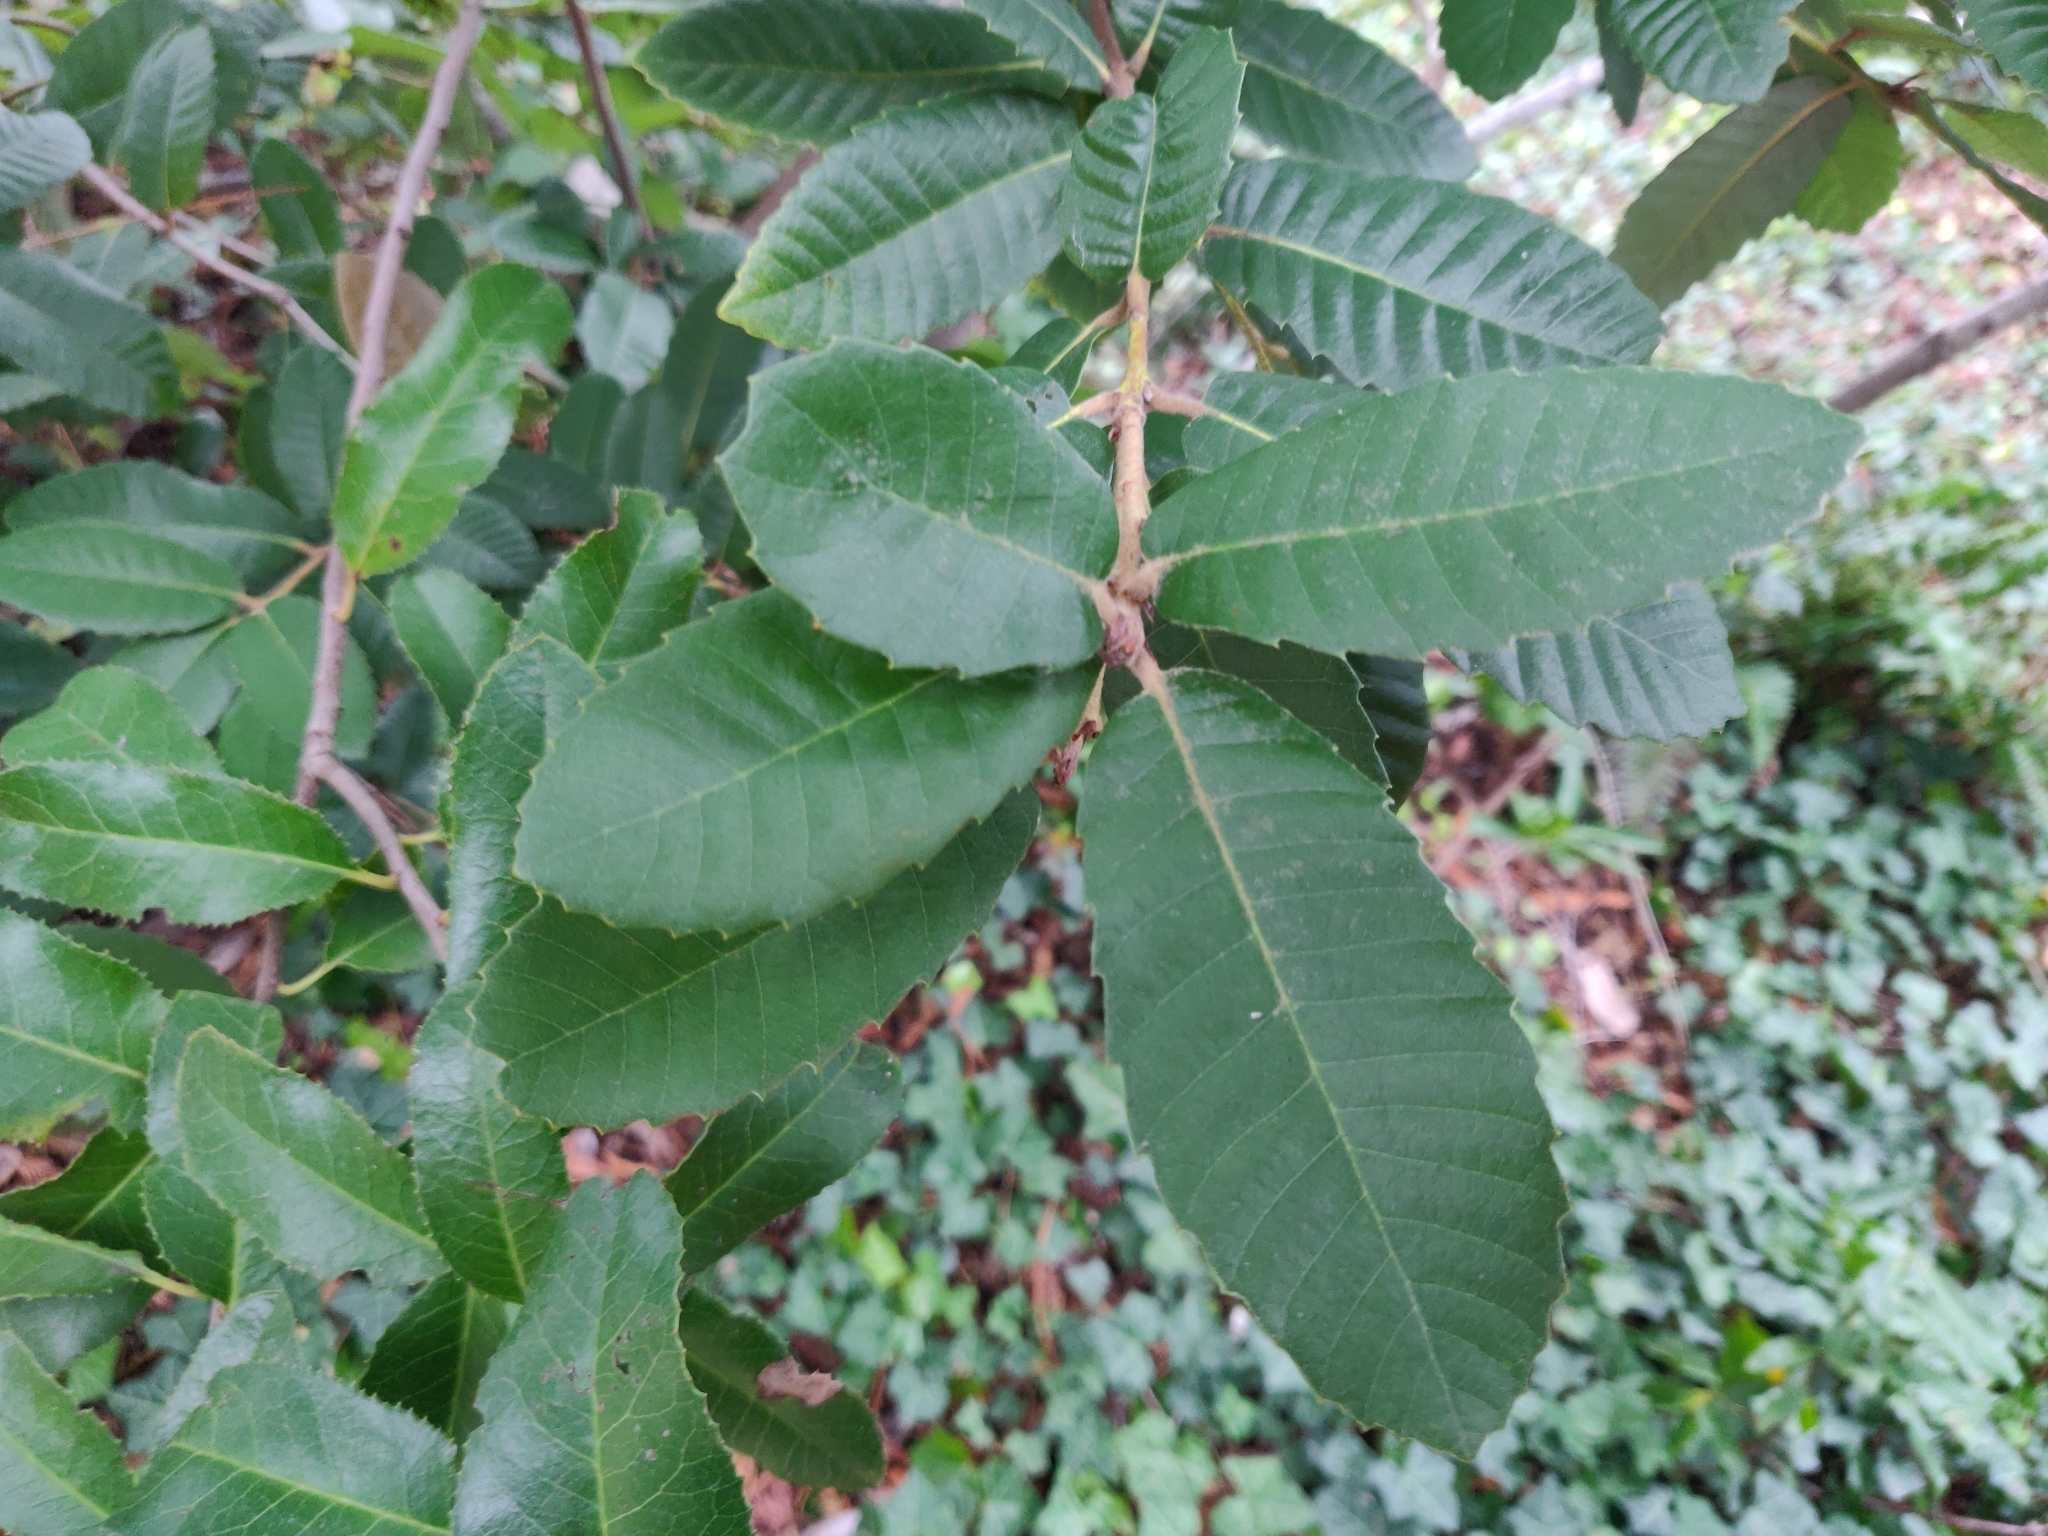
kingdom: Plantae
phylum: Tracheophyta
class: Magnoliopsida
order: Fagales
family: Fagaceae
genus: Notholithocarpus
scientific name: Notholithocarpus densiflorus
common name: Tan bark oak
